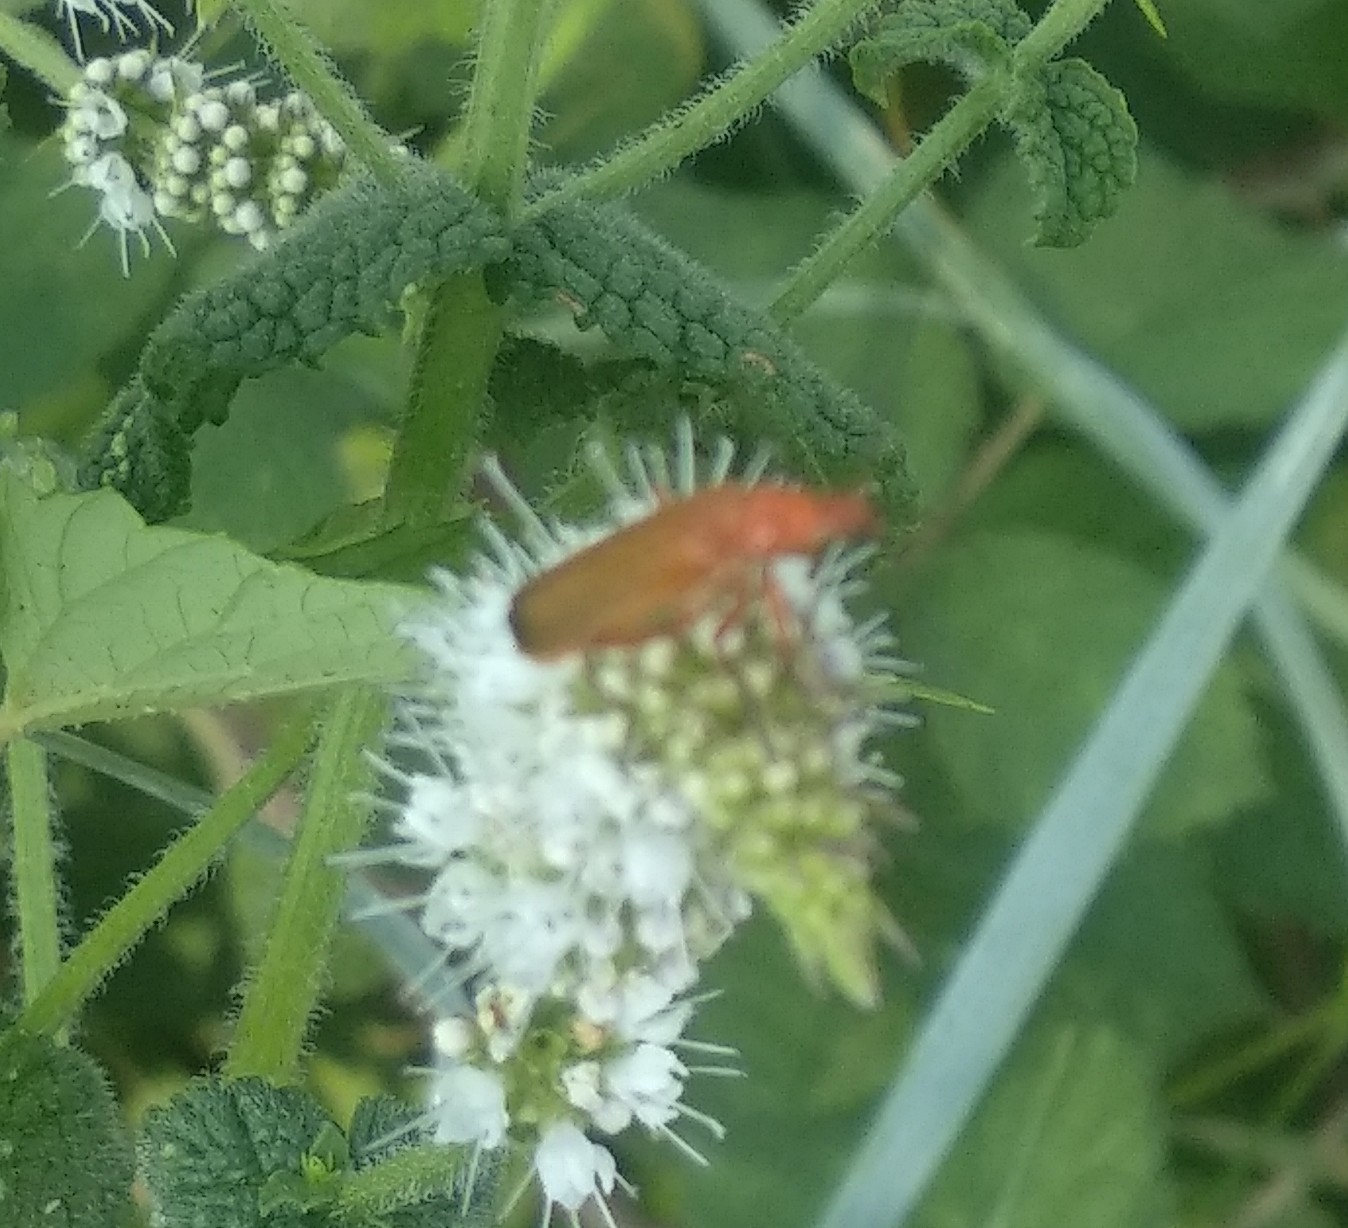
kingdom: Animalia
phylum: Arthropoda
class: Insecta
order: Coleoptera
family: Cantharidae
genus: Rhagonycha
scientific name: Rhagonycha fulva
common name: Common red soldier beetle
